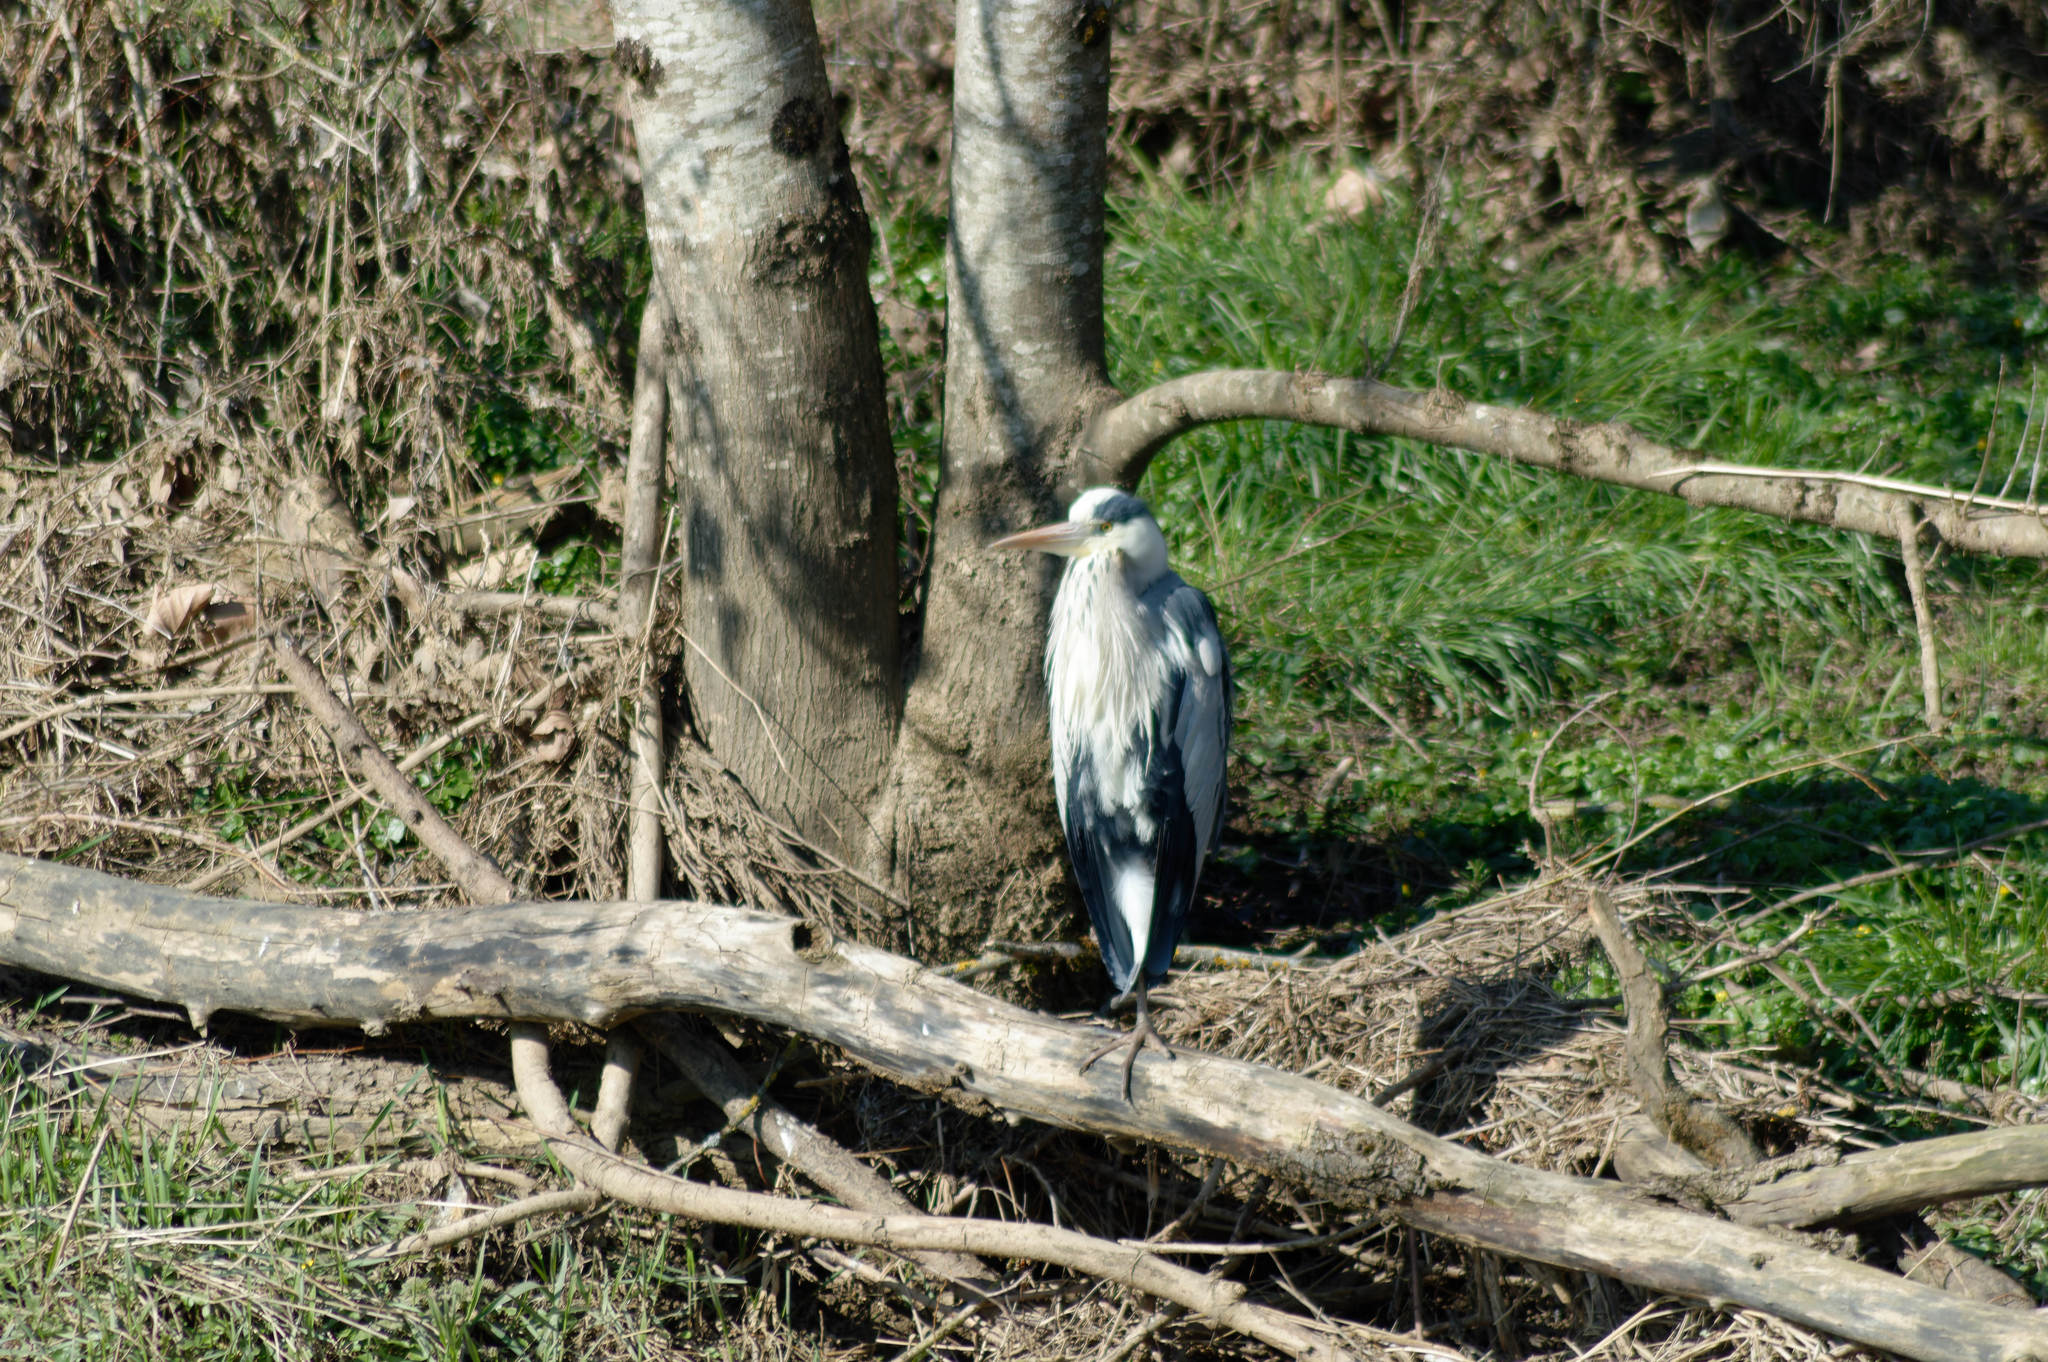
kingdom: Animalia
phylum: Chordata
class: Aves
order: Pelecaniformes
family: Ardeidae
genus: Ardea
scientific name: Ardea cinerea
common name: Grey heron
